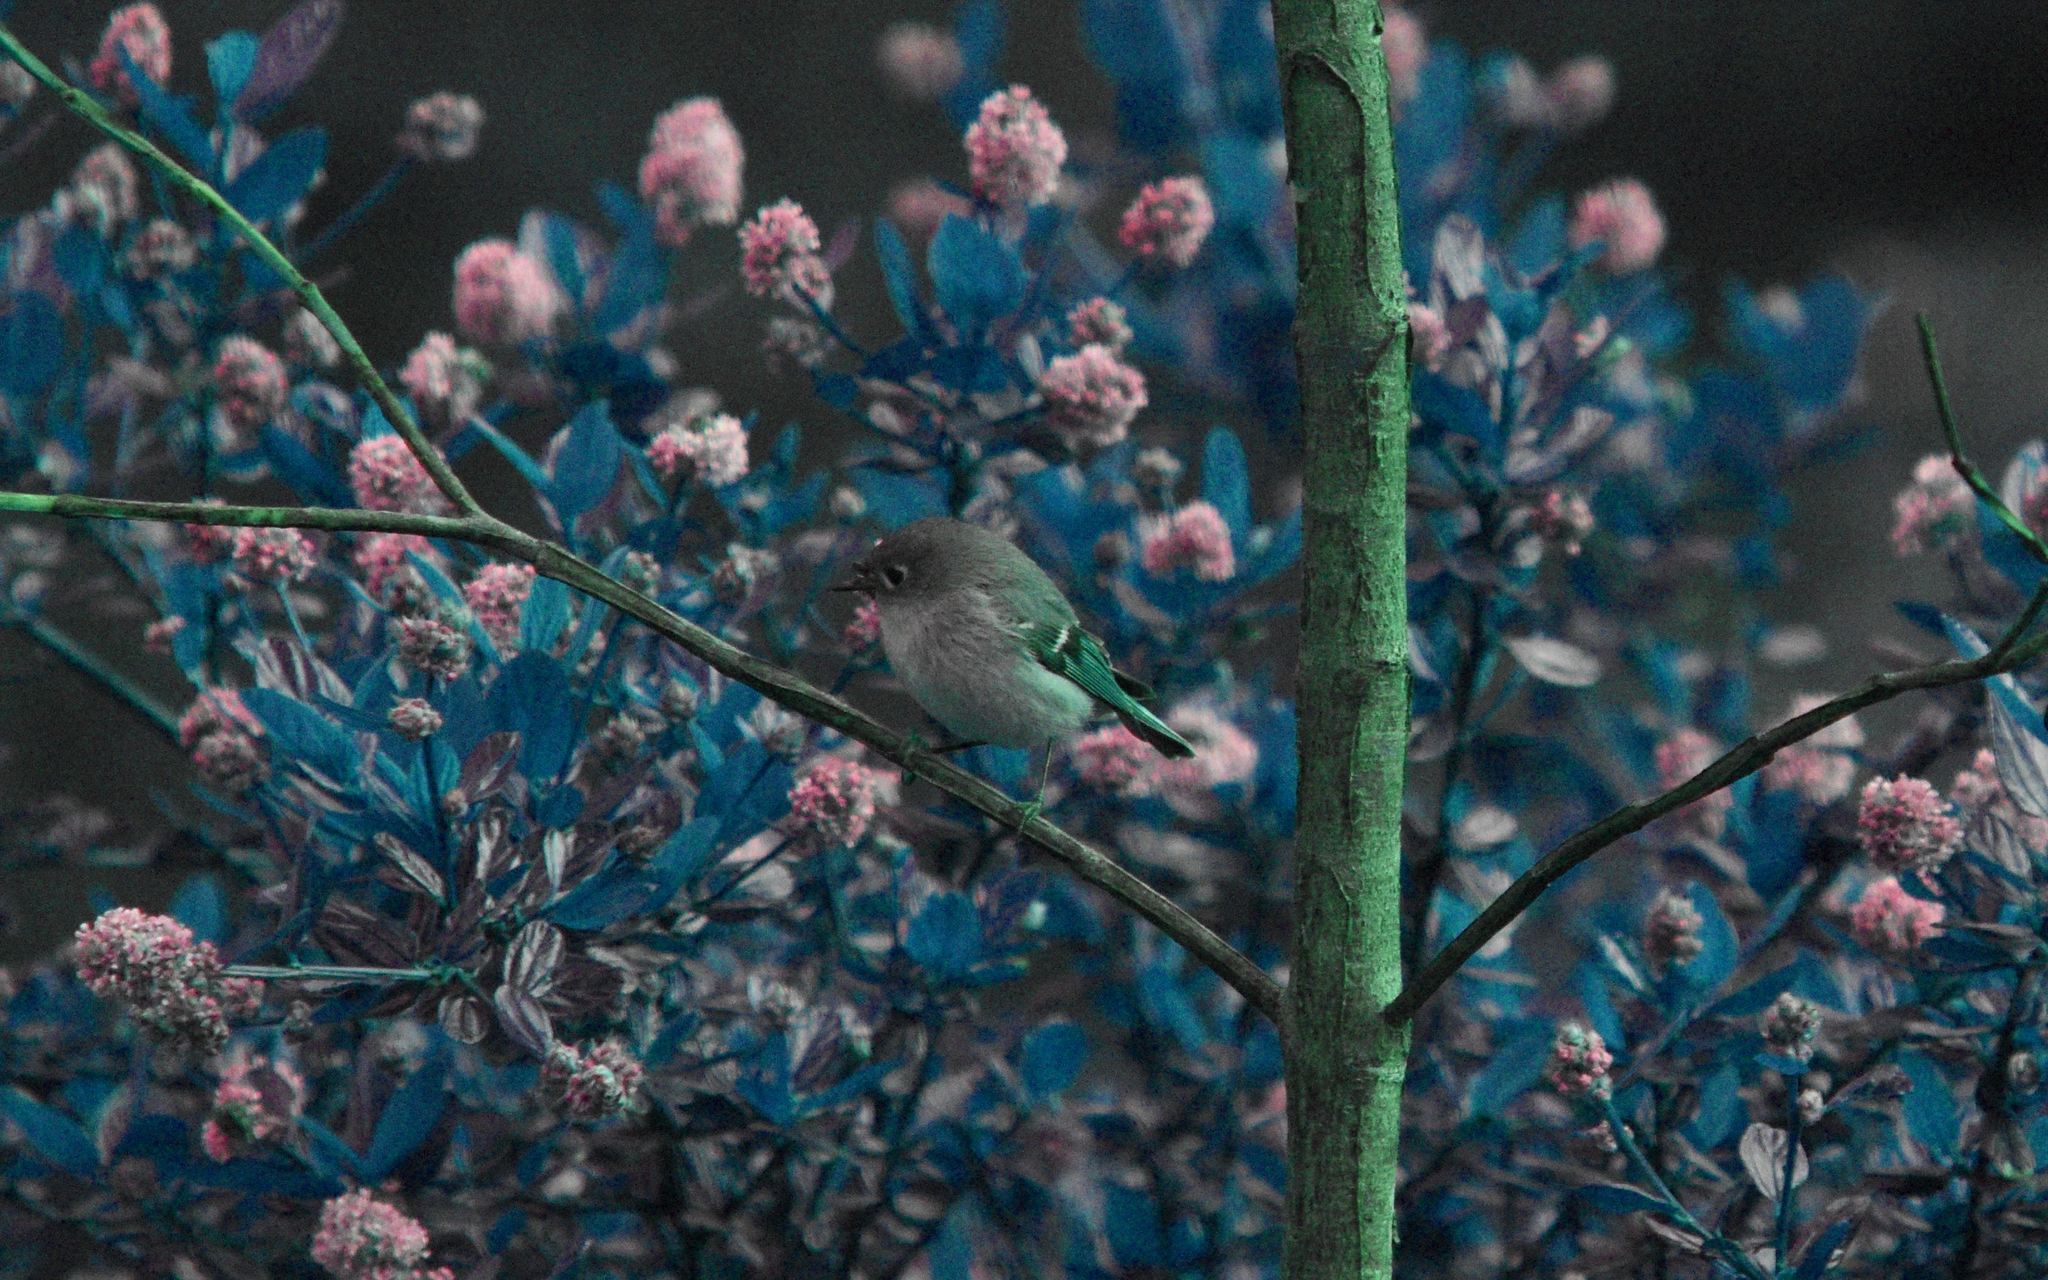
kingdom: Animalia
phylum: Chordata
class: Aves
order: Passeriformes
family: Regulidae
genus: Regulus
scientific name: Regulus calendula
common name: Ruby-crowned kinglet
